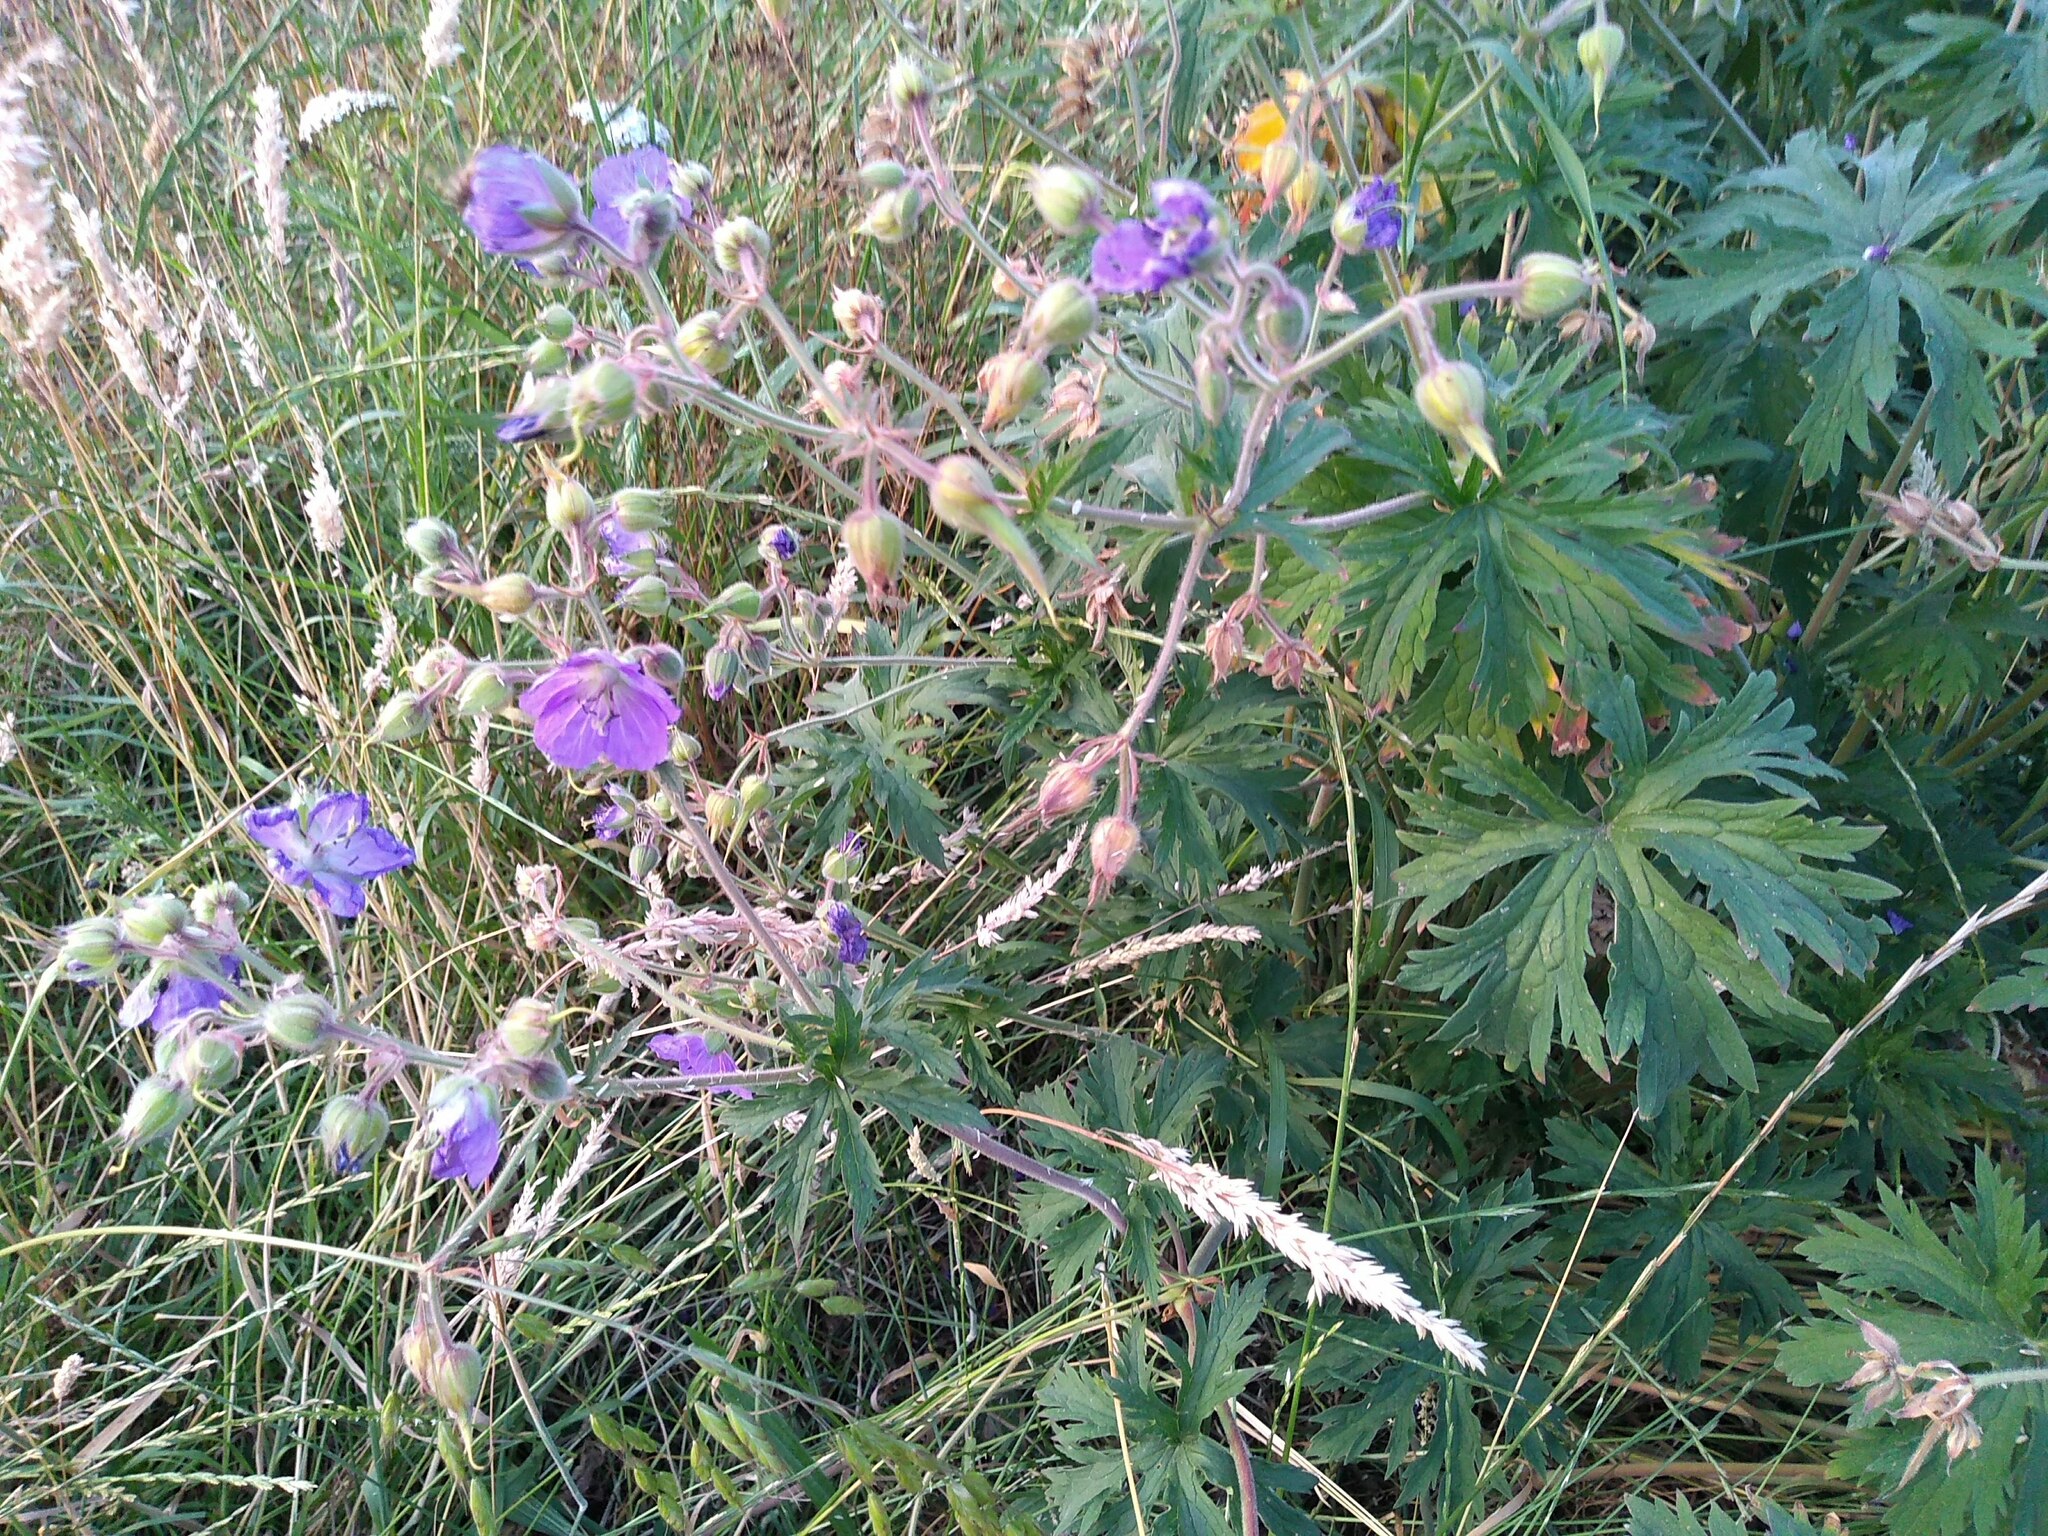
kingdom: Plantae
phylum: Tracheophyta
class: Magnoliopsida
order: Geraniales
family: Geraniaceae
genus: Geranium
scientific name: Geranium pratense
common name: Meadow crane's-bill
